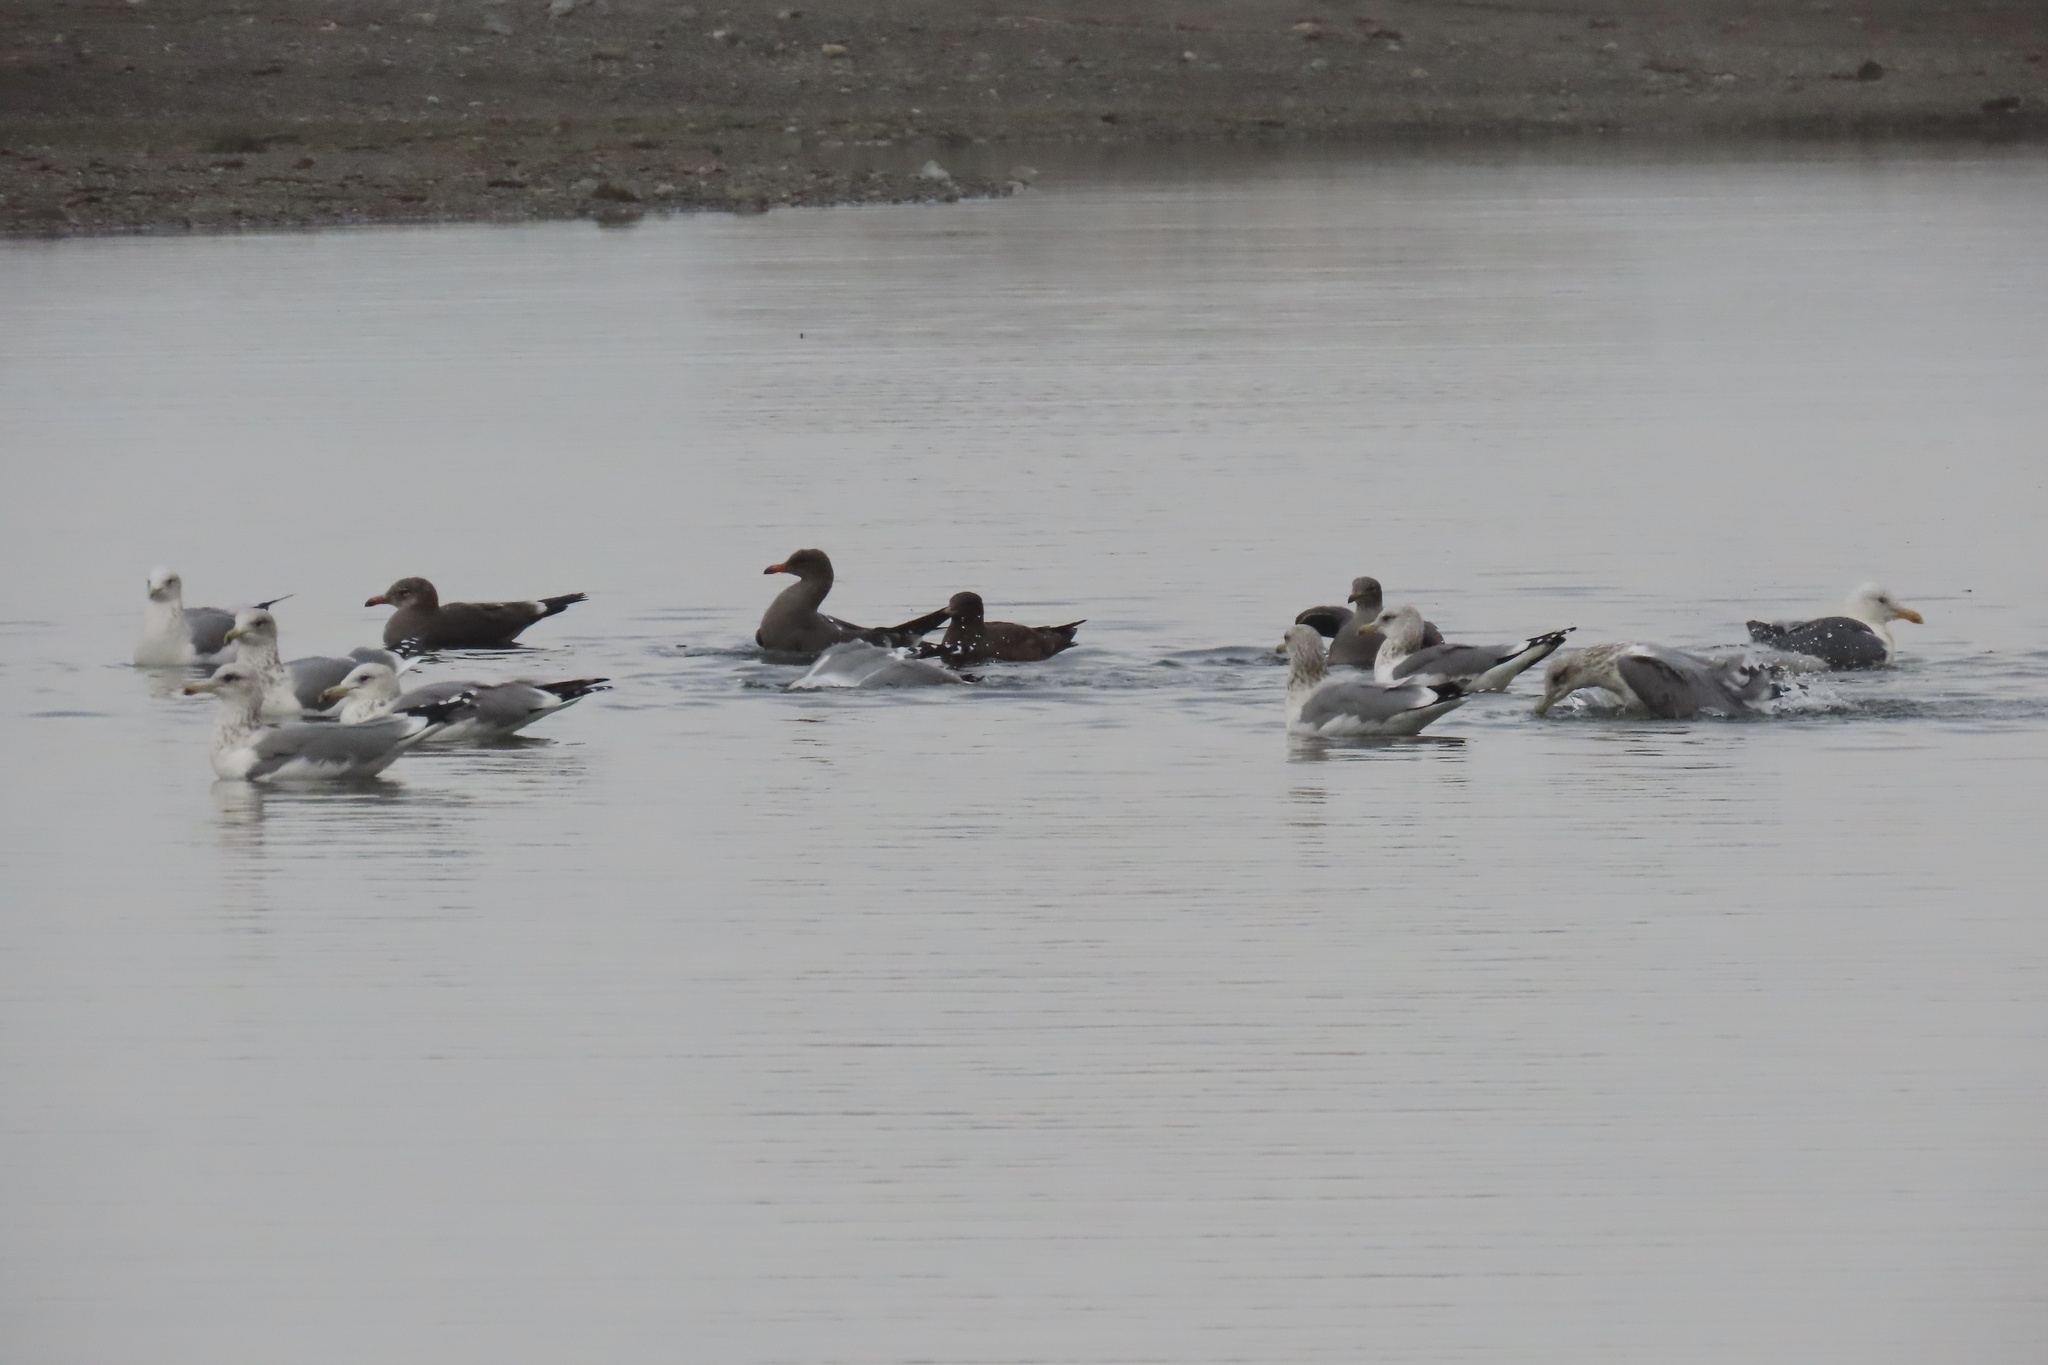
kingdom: Animalia
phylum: Chordata
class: Aves
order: Charadriiformes
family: Laridae
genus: Larus
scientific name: Larus californicus
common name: California gull
